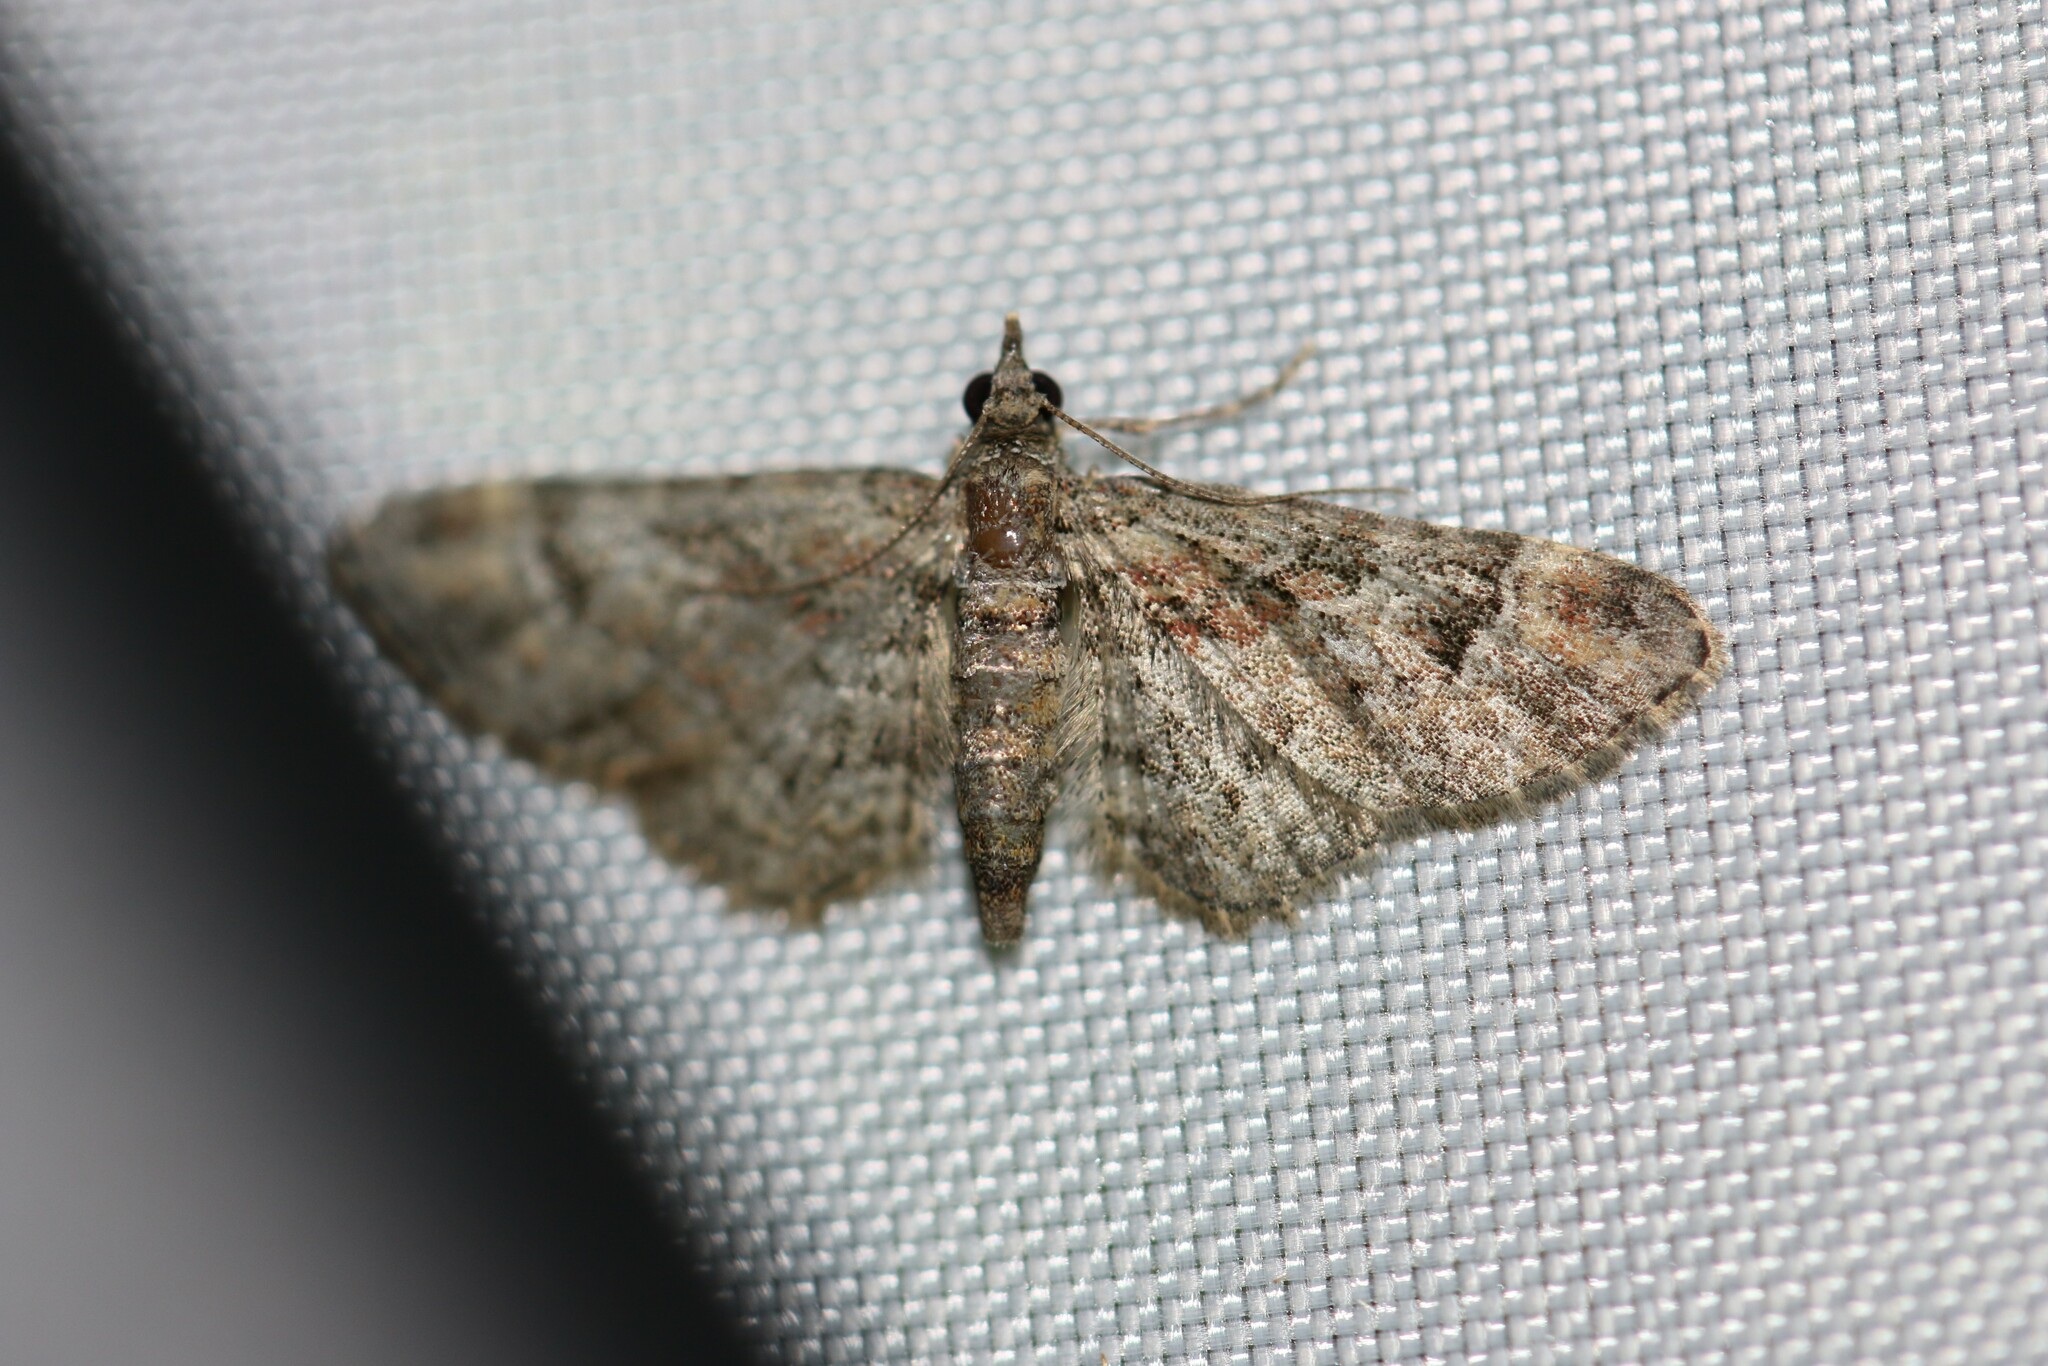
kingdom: Animalia
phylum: Arthropoda
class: Insecta
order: Lepidoptera
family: Geometridae
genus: Gymnoscelis
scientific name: Gymnoscelis rufifasciata
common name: Double-striped pug
